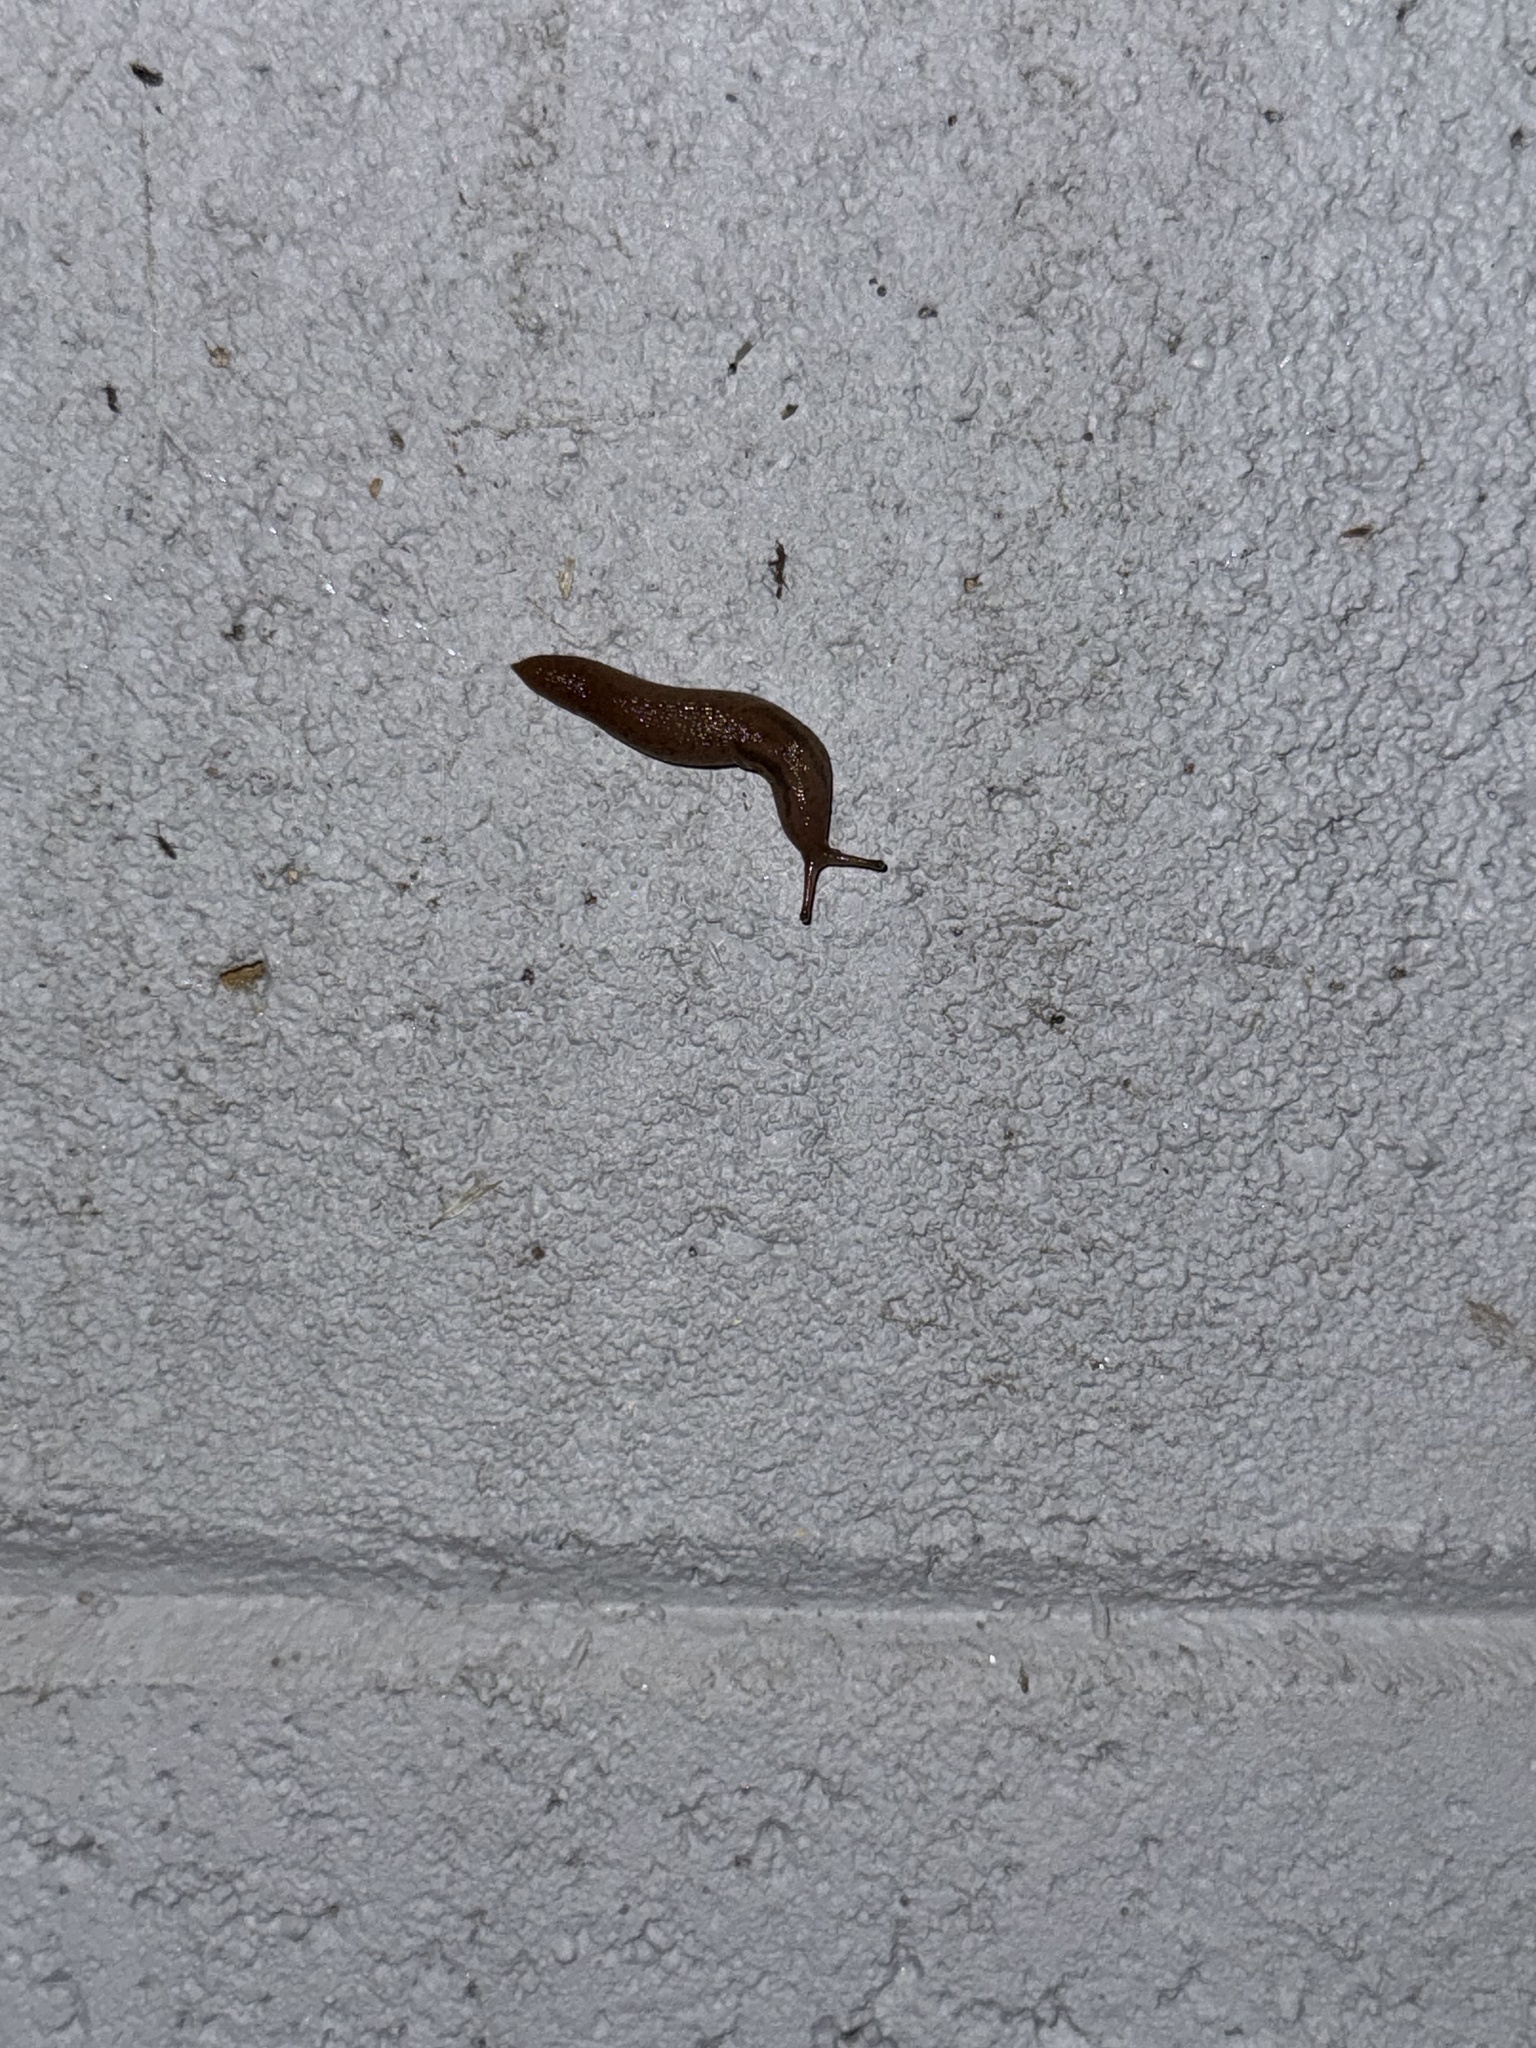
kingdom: Animalia
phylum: Mollusca
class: Gastropoda
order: Stylommatophora
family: Limacidae
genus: Ambigolimax
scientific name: Ambigolimax valentianus
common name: Greenhouse slug
